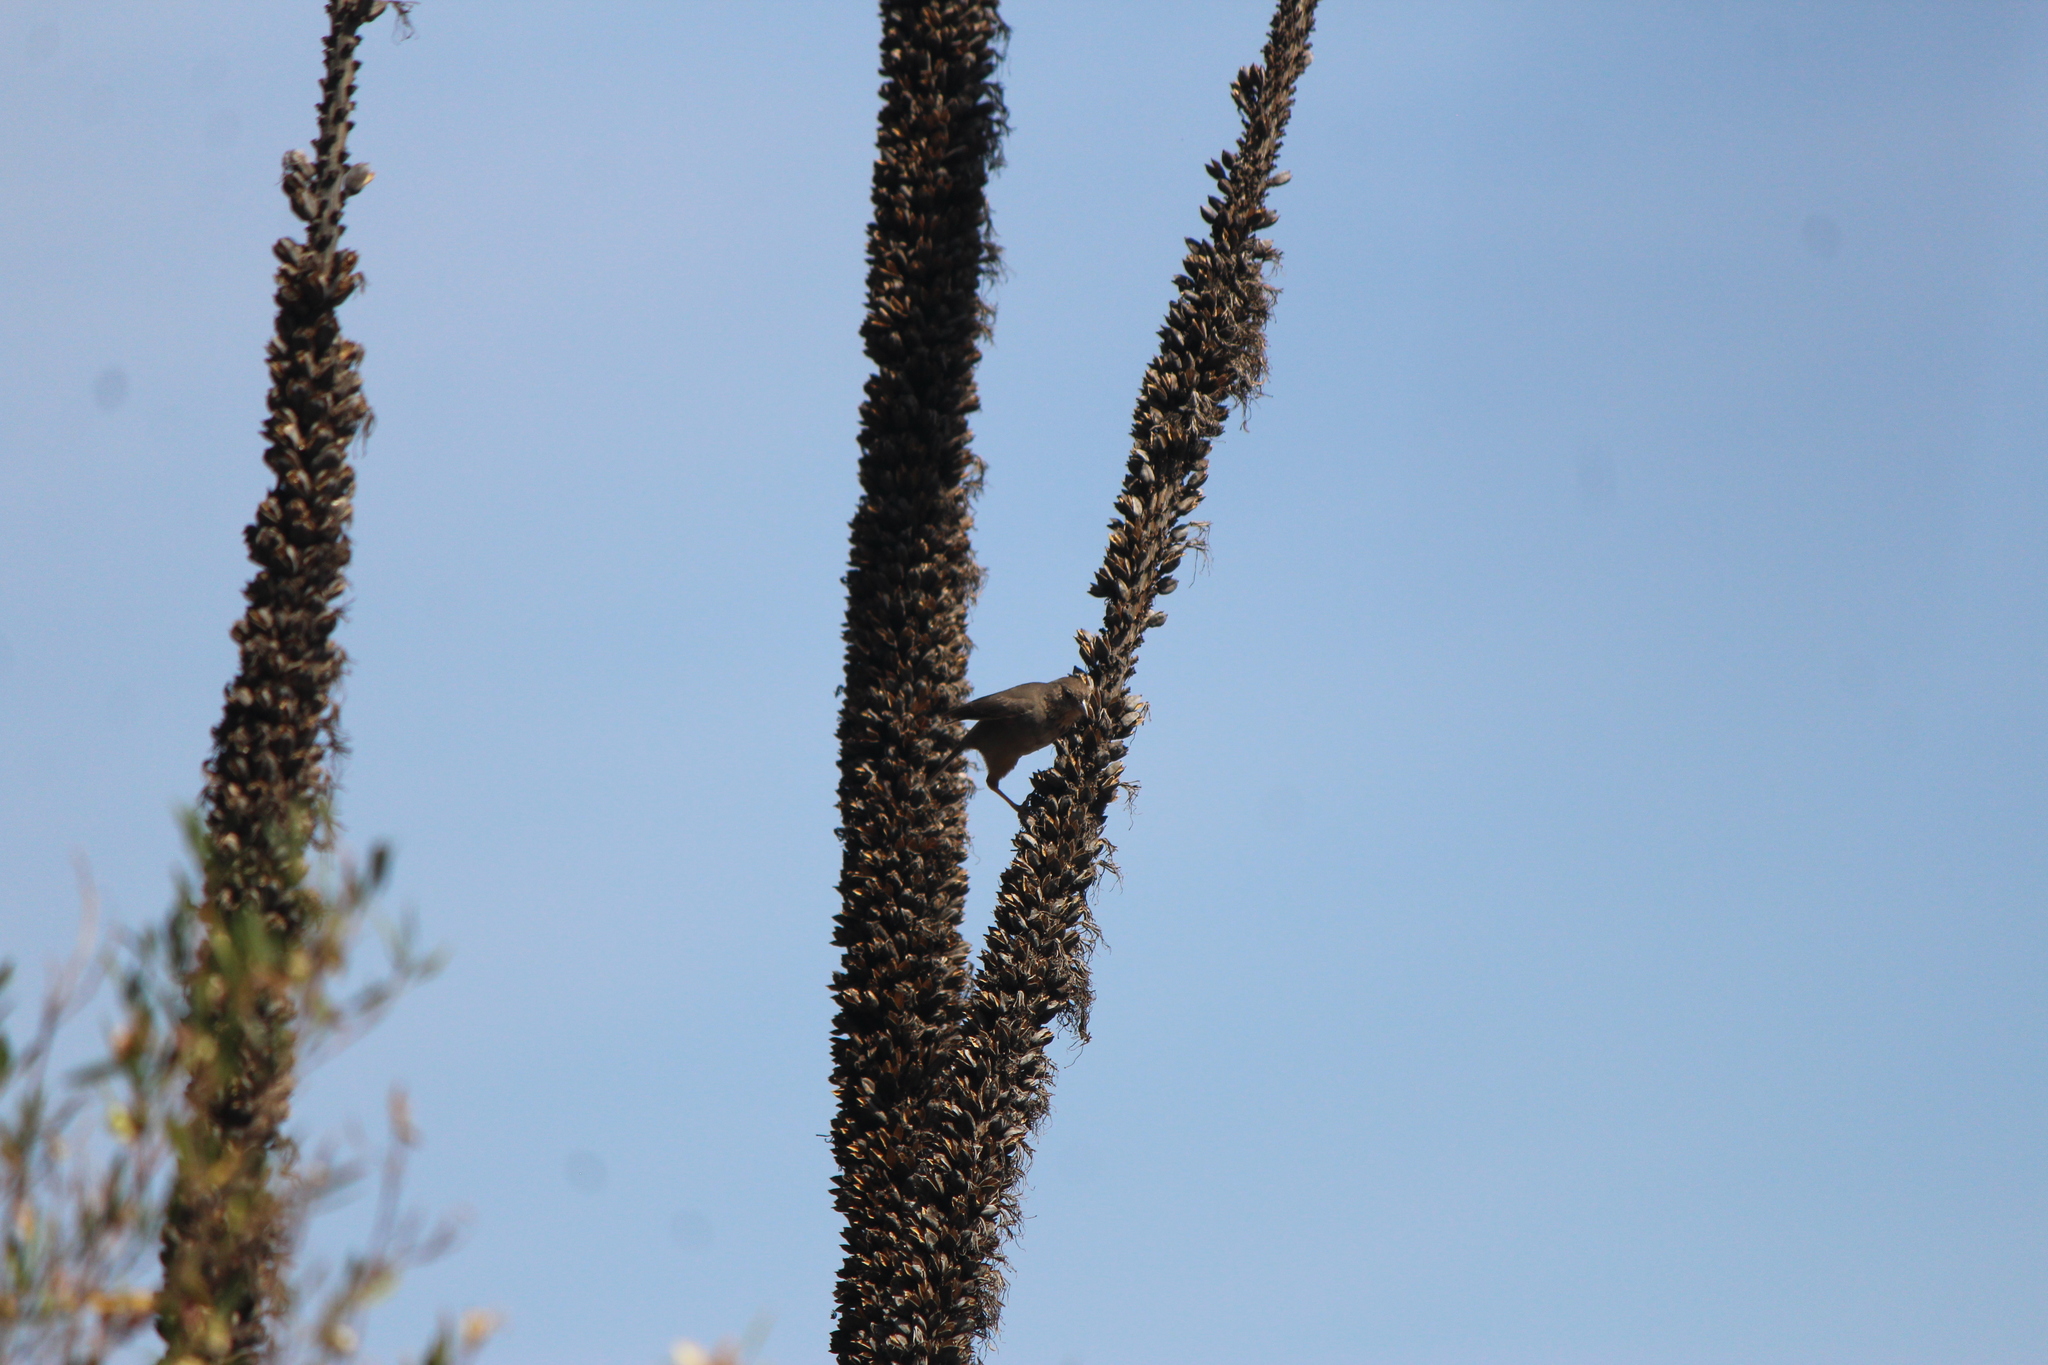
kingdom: Animalia
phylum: Chordata
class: Aves
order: Passeriformes
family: Passerellidae
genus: Melozone
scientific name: Melozone fusca
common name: Canyon towhee
